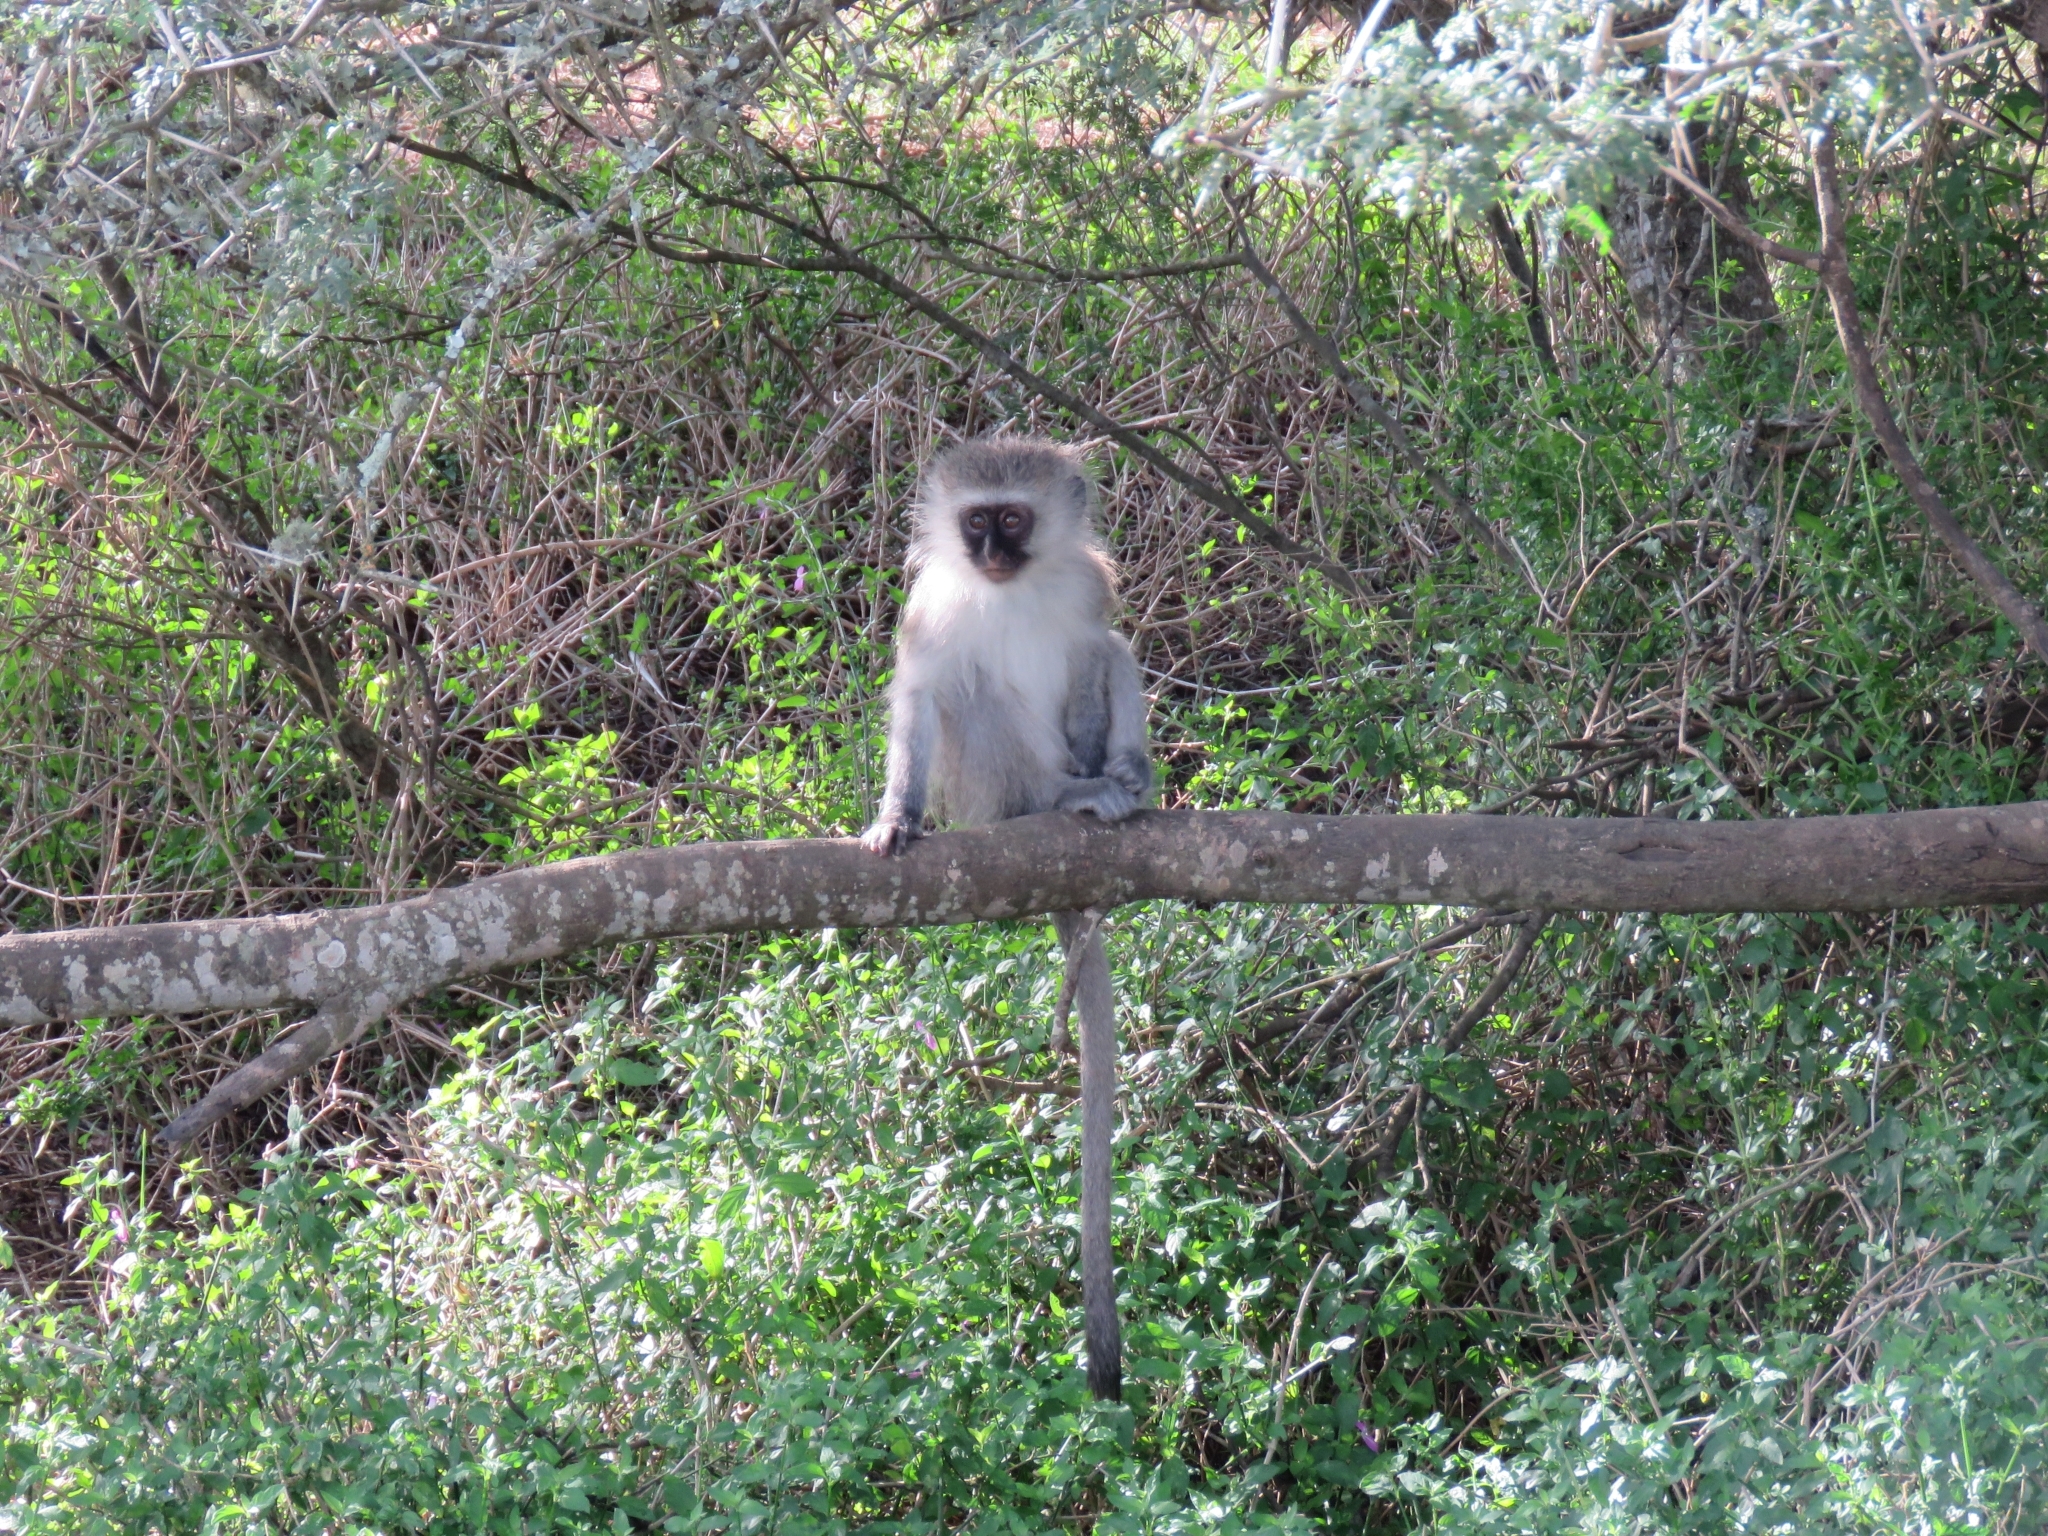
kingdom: Animalia
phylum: Chordata
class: Mammalia
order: Primates
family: Cercopithecidae
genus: Chlorocebus
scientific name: Chlorocebus pygerythrus
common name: Vervet monkey
